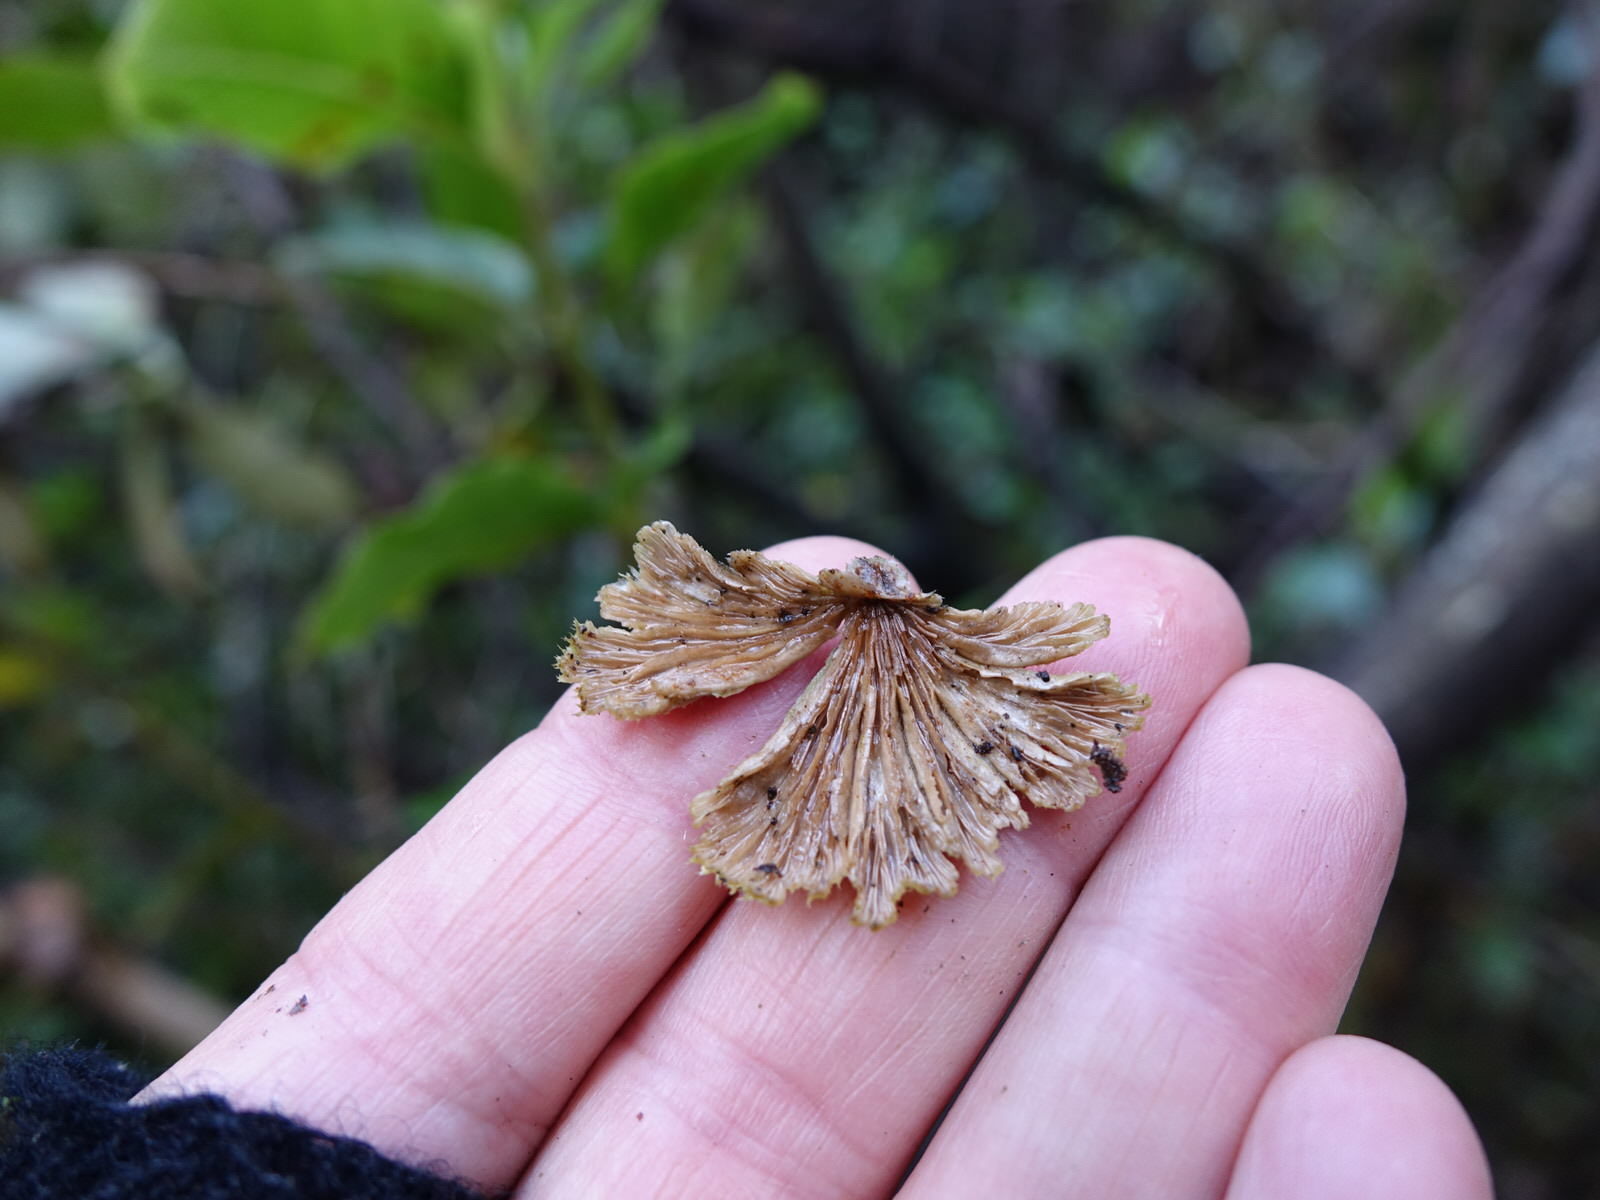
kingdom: Fungi
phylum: Basidiomycota
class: Agaricomycetes
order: Agaricales
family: Schizophyllaceae
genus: Schizophyllum
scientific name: Schizophyllum commune
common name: Common porecrust
